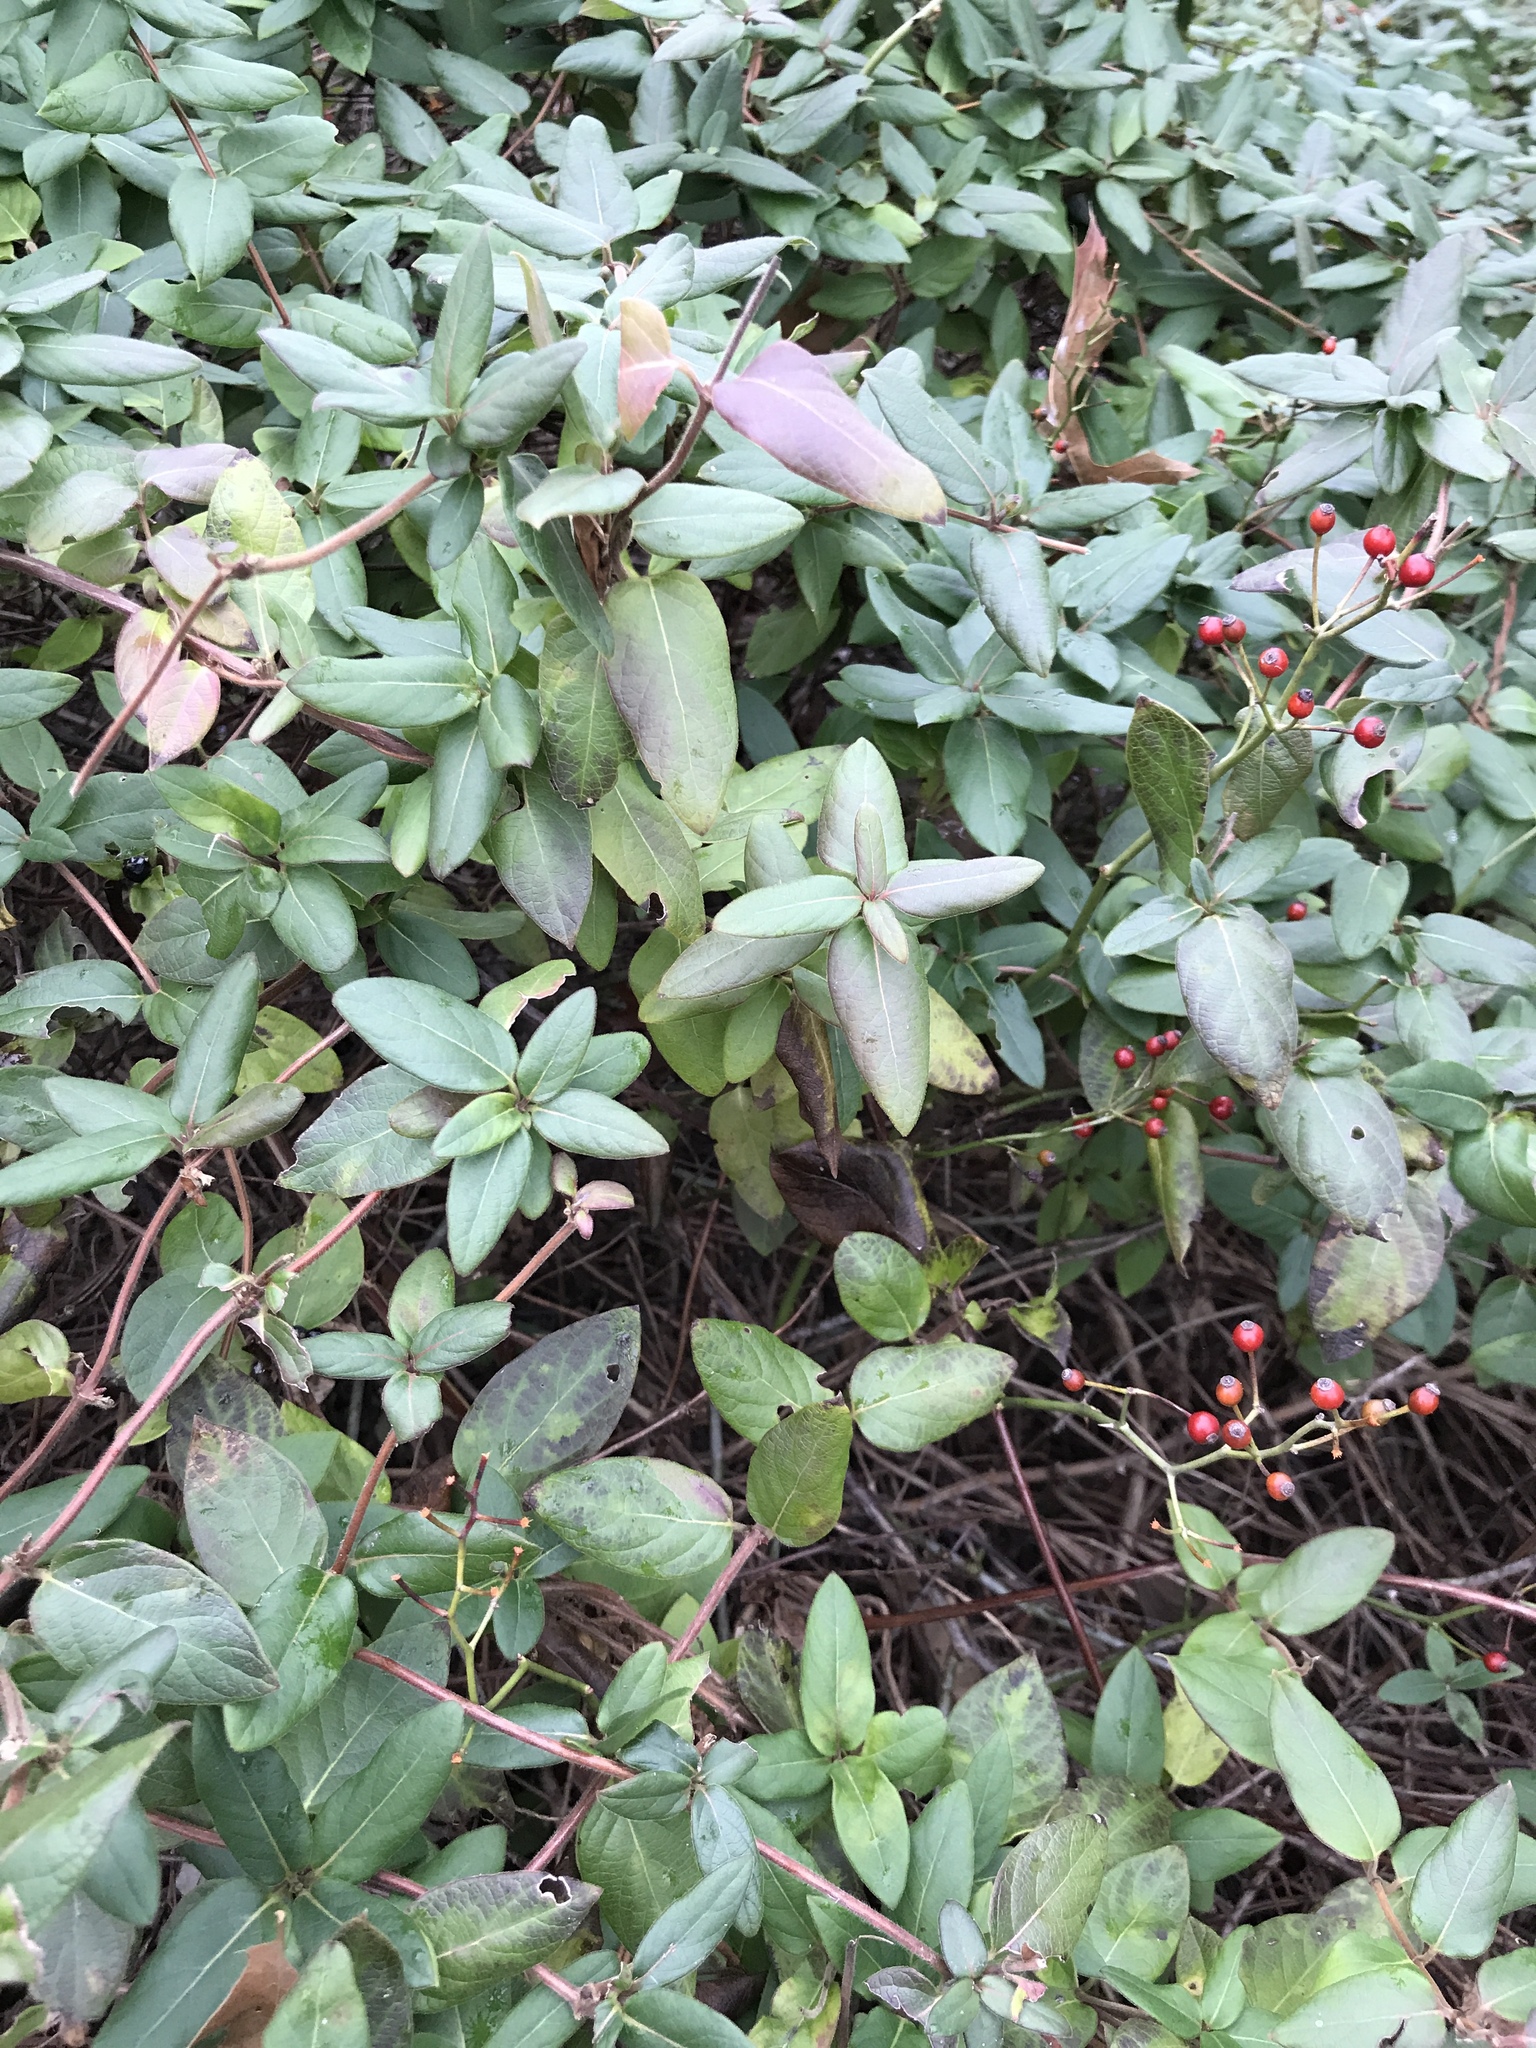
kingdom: Plantae
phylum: Tracheophyta
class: Magnoliopsida
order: Dipsacales
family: Caprifoliaceae
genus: Lonicera
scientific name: Lonicera japonica
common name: Japanese honeysuckle
